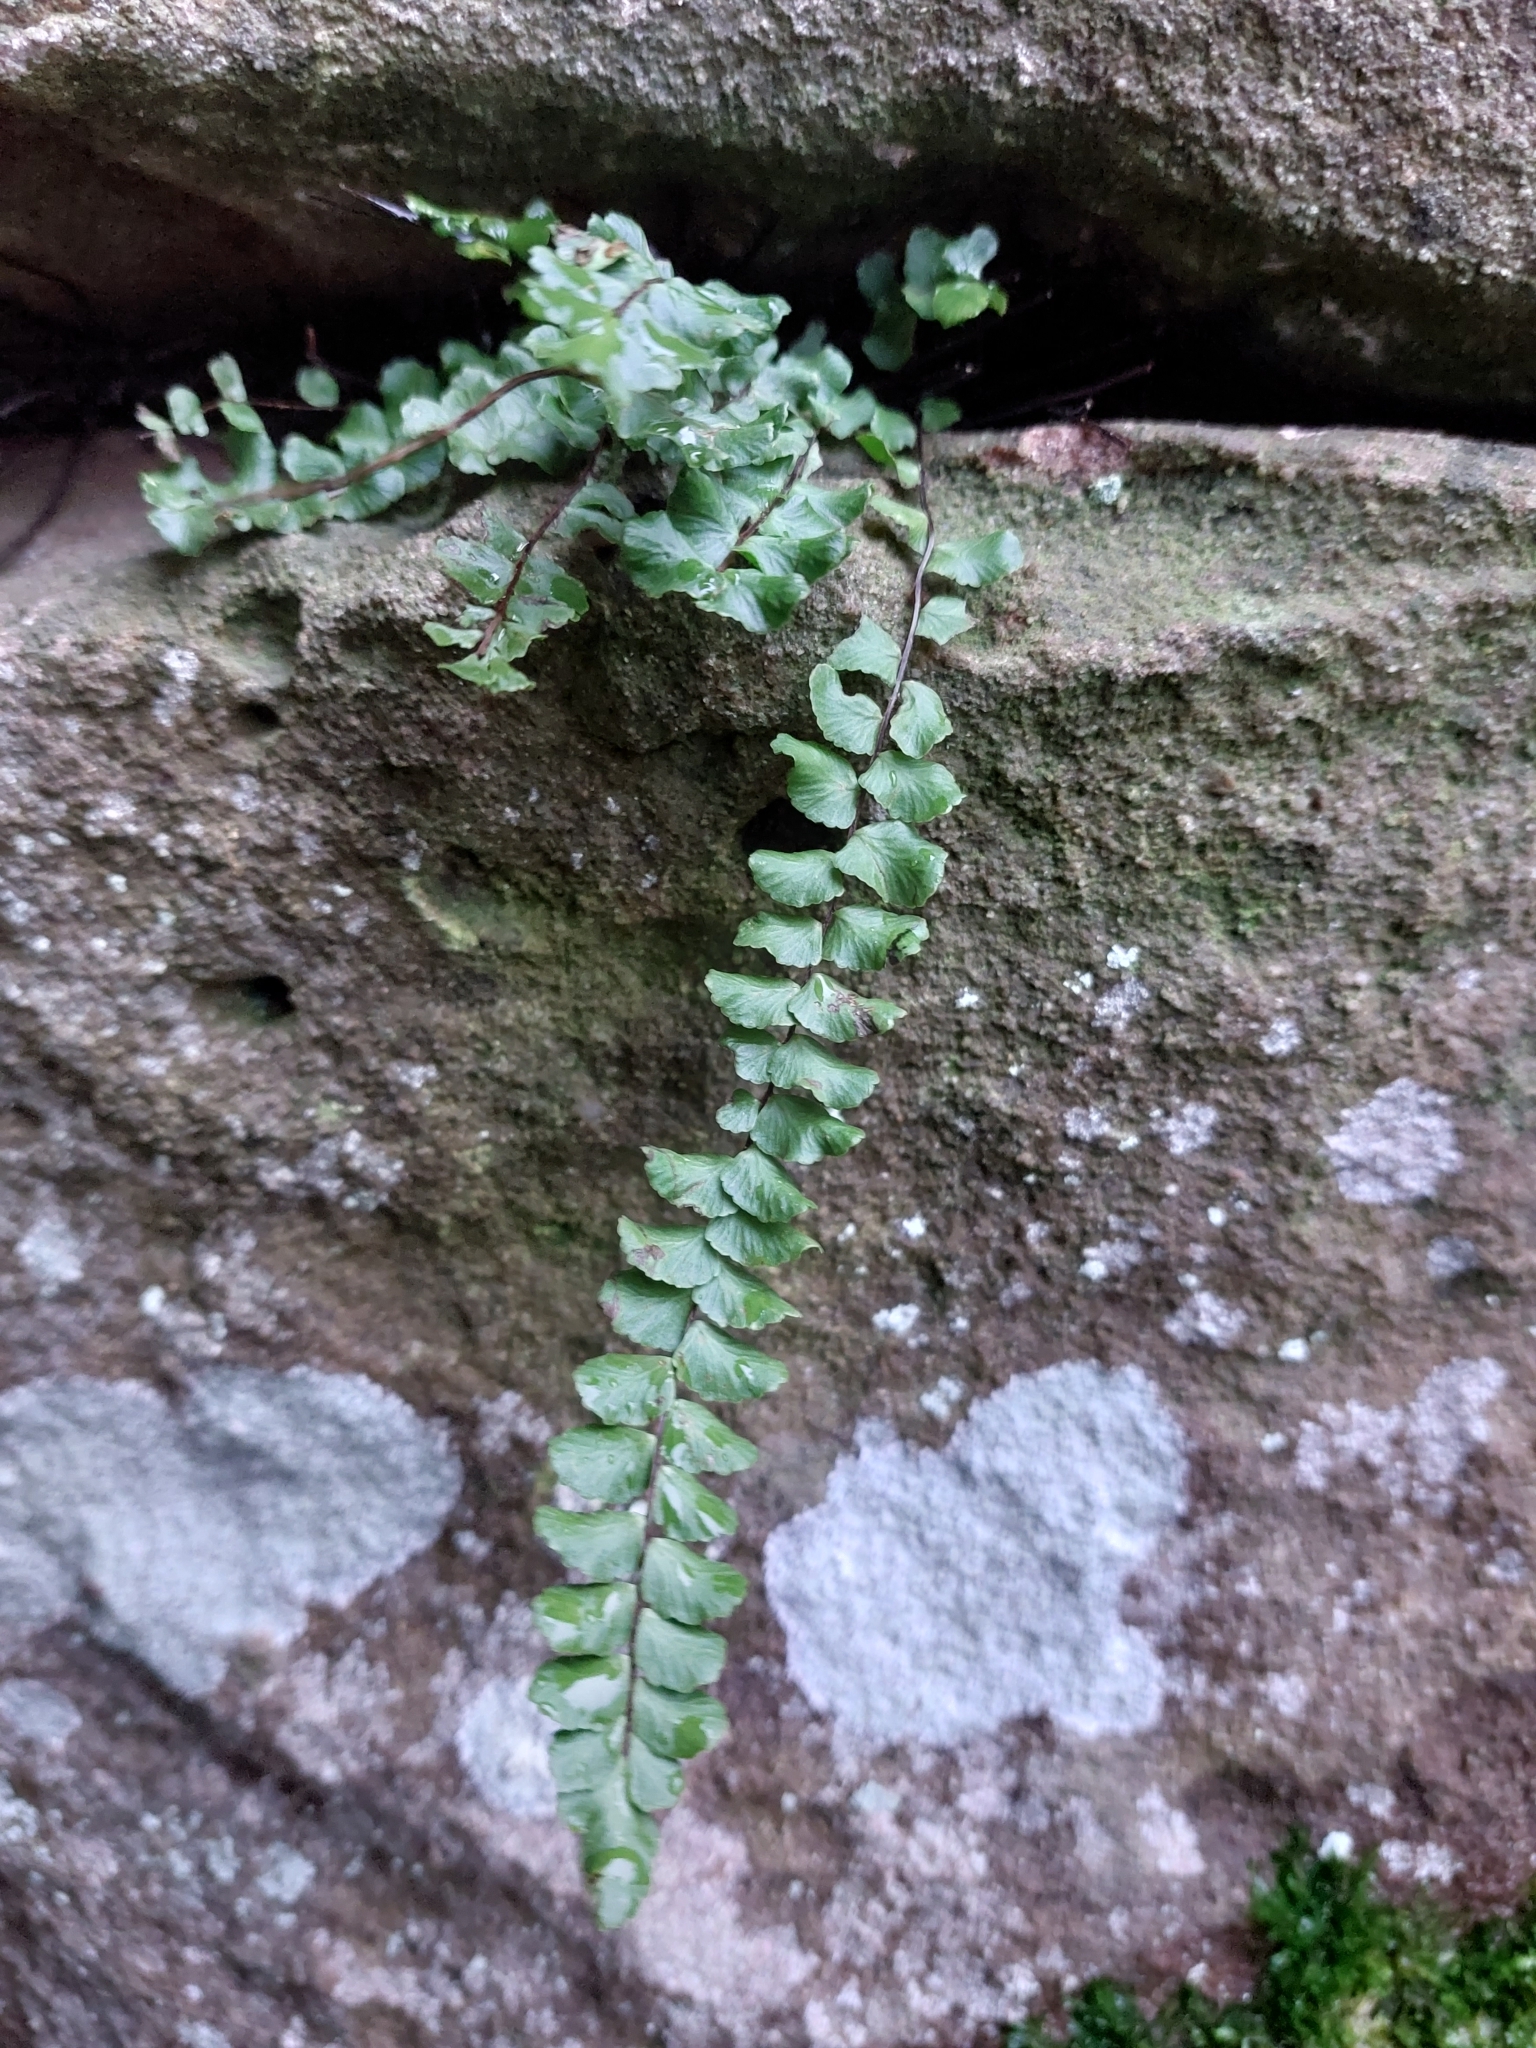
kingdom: Plantae
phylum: Tracheophyta
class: Polypodiopsida
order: Polypodiales
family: Aspleniaceae
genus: Asplenium
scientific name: Asplenium trichomanes
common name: Maidenhair spleenwort
